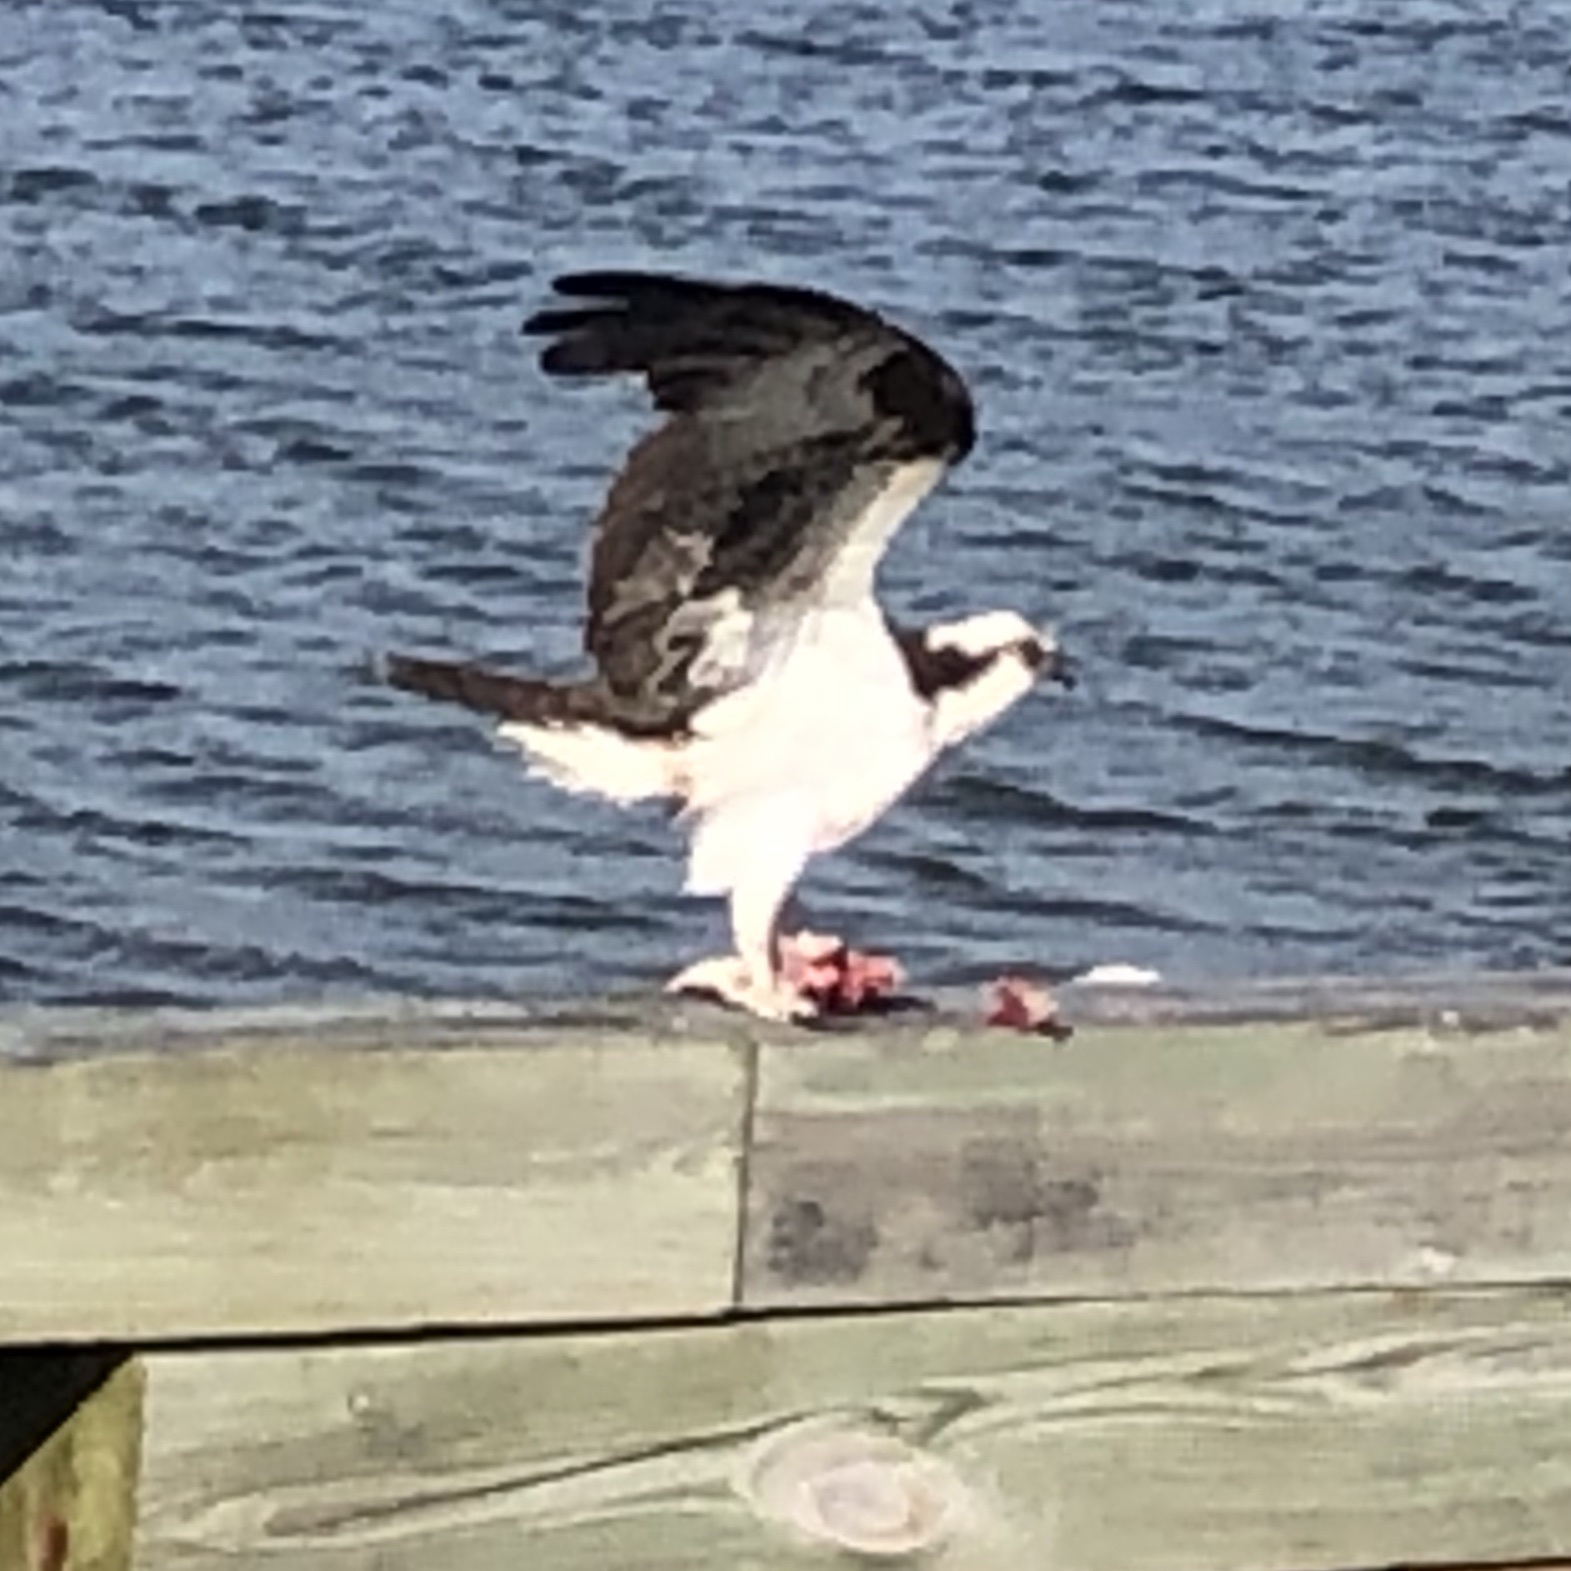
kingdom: Animalia
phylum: Chordata
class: Aves
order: Accipitriformes
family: Pandionidae
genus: Pandion
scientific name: Pandion haliaetus
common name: Osprey
